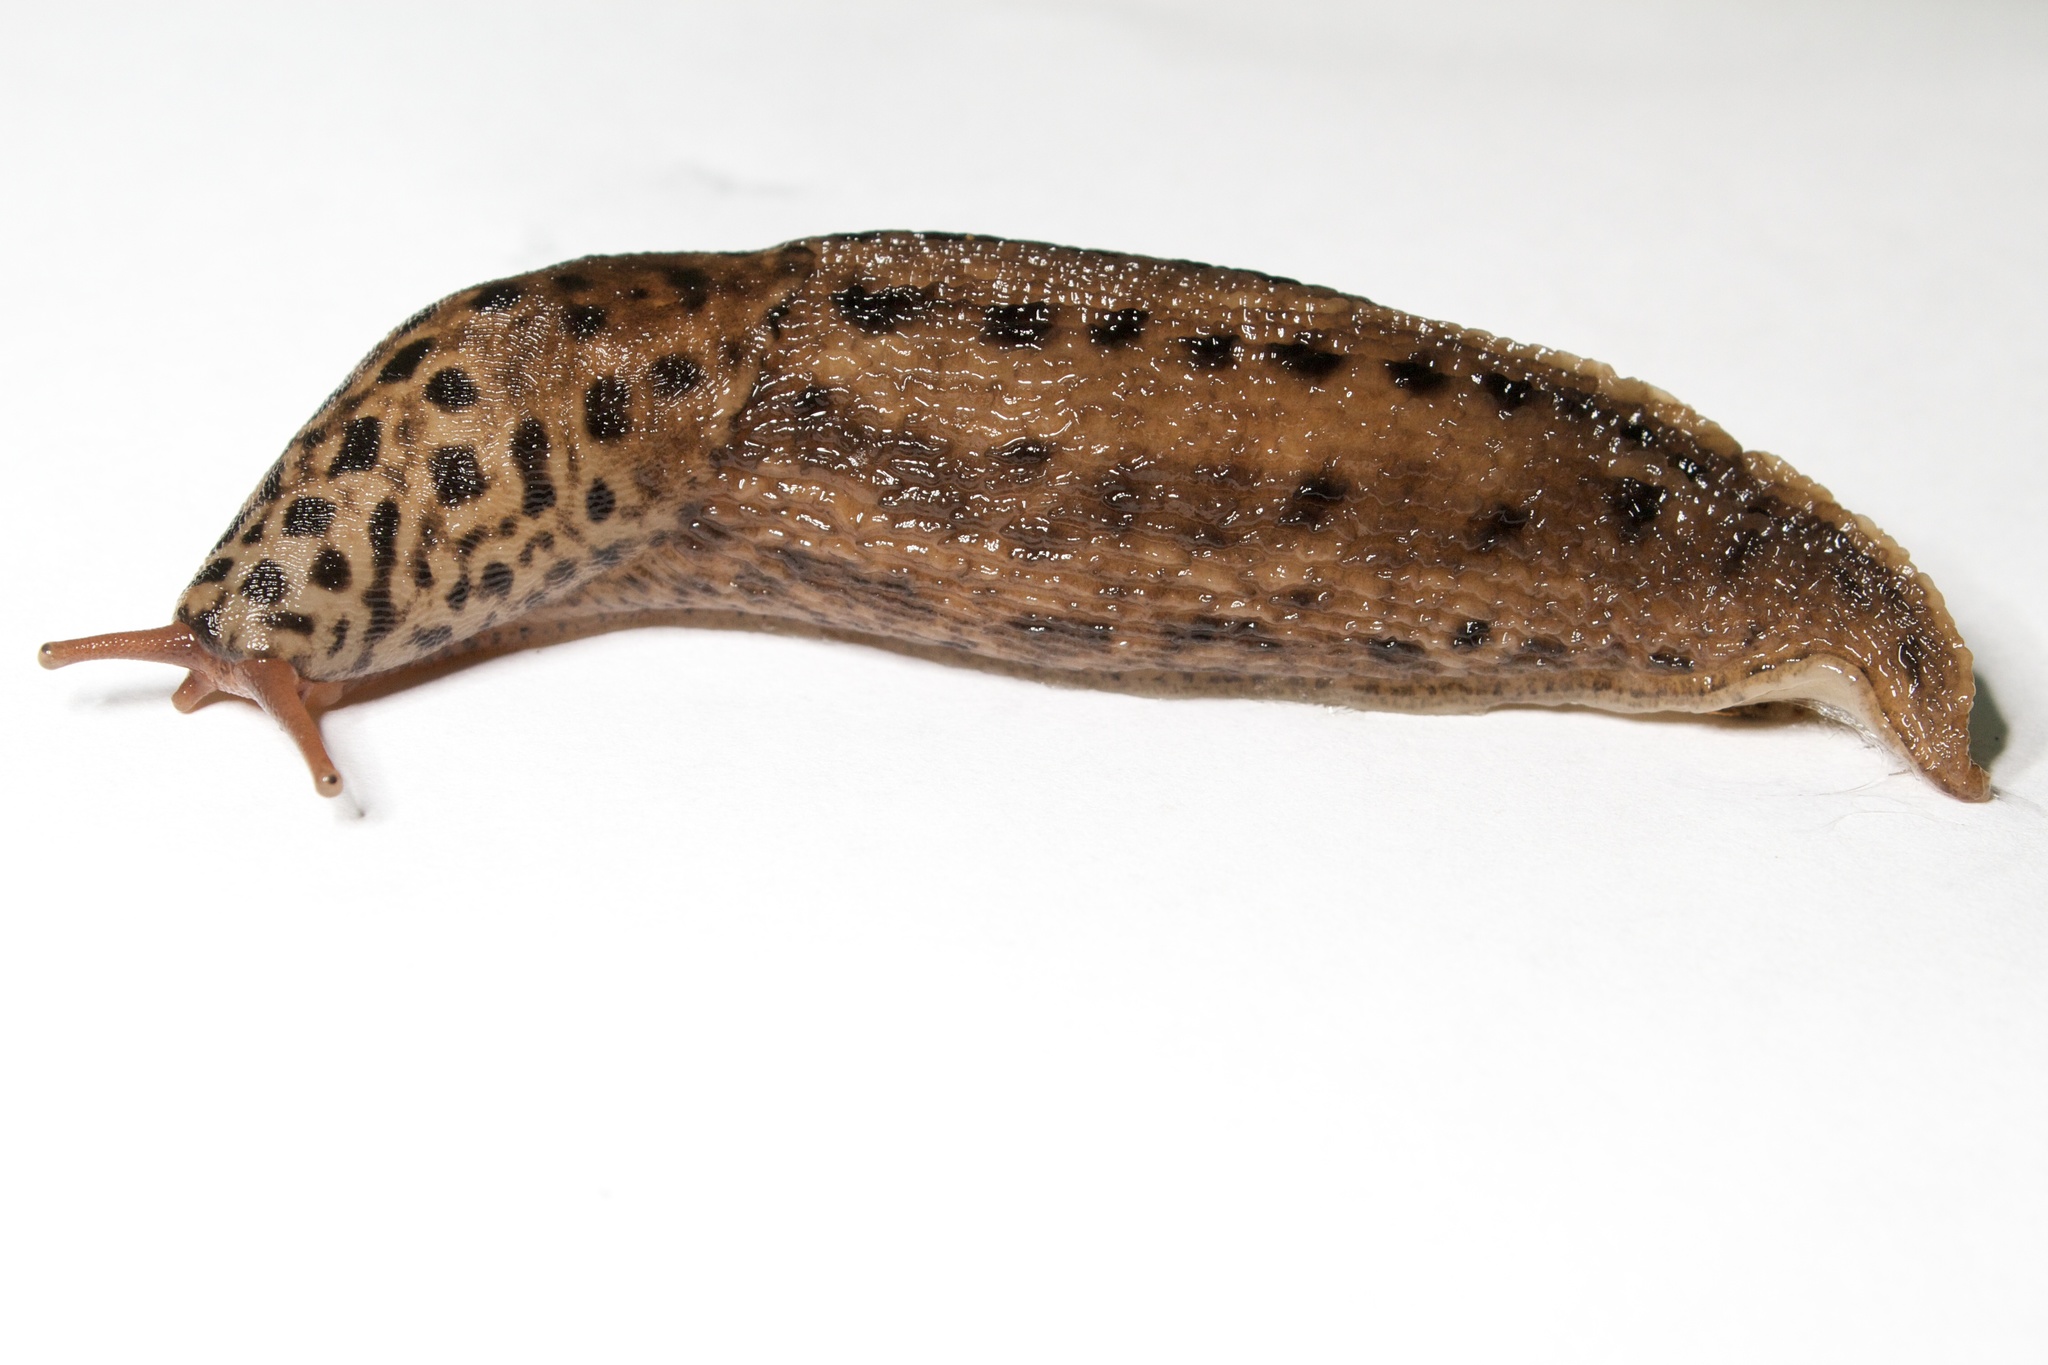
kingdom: Animalia
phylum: Mollusca
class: Gastropoda
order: Stylommatophora
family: Limacidae
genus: Limax
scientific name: Limax maximus
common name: Great grey slug
